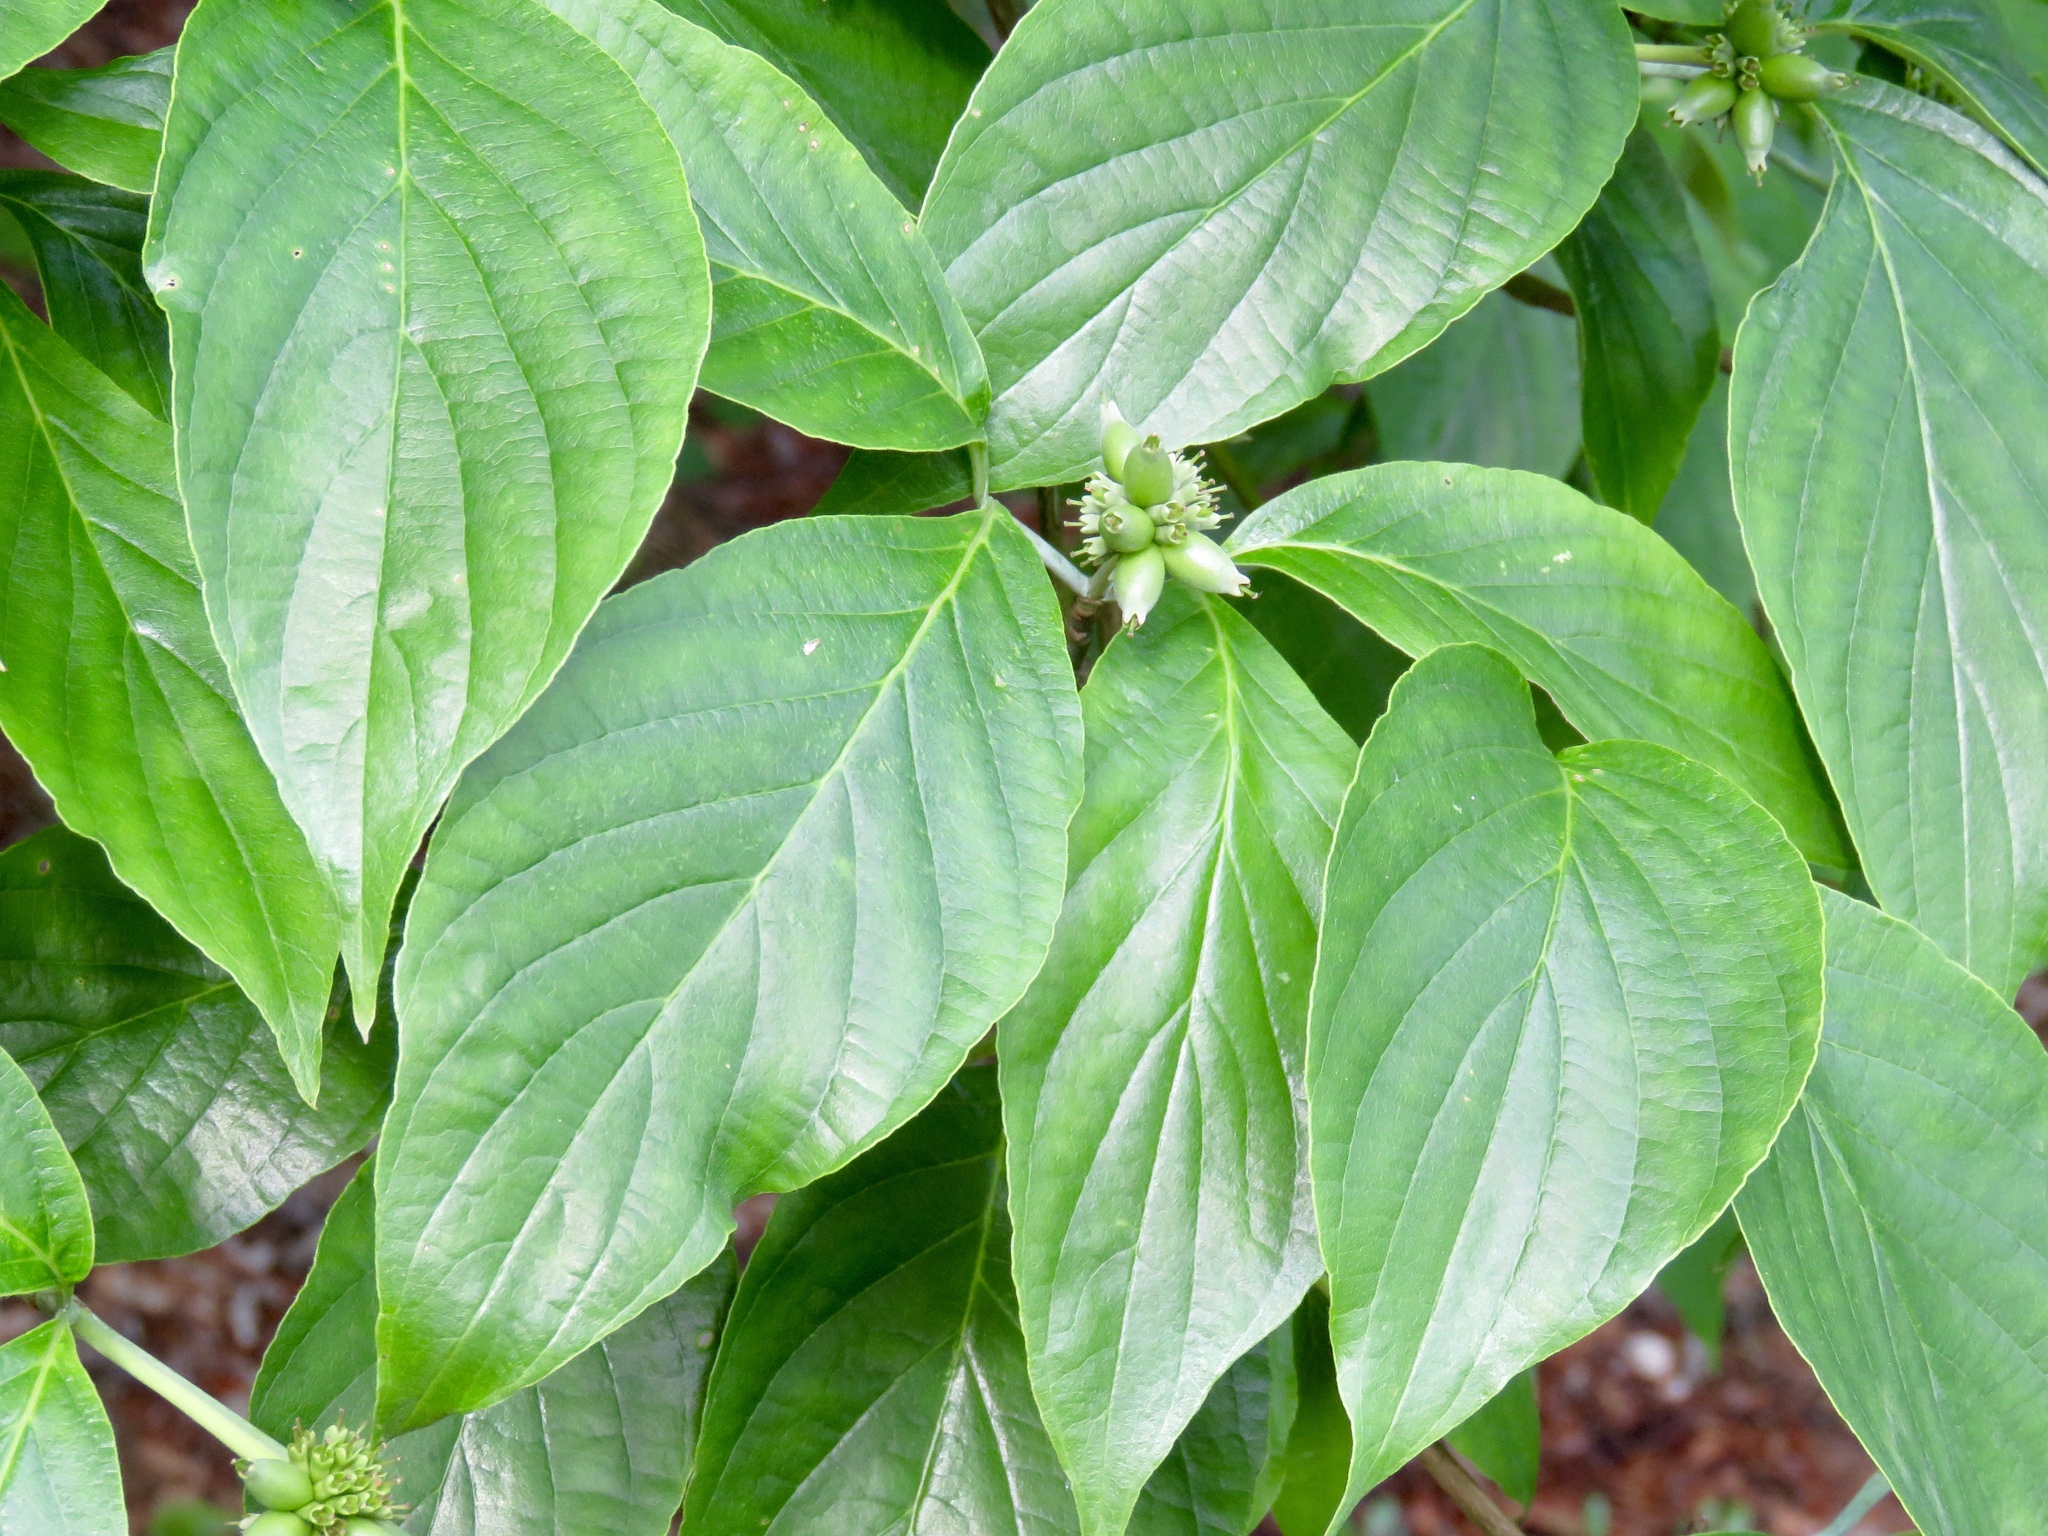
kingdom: Plantae
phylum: Tracheophyta
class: Magnoliopsida
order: Cornales
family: Cornaceae
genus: Cornus
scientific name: Cornus florida
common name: Flowering dogwood
